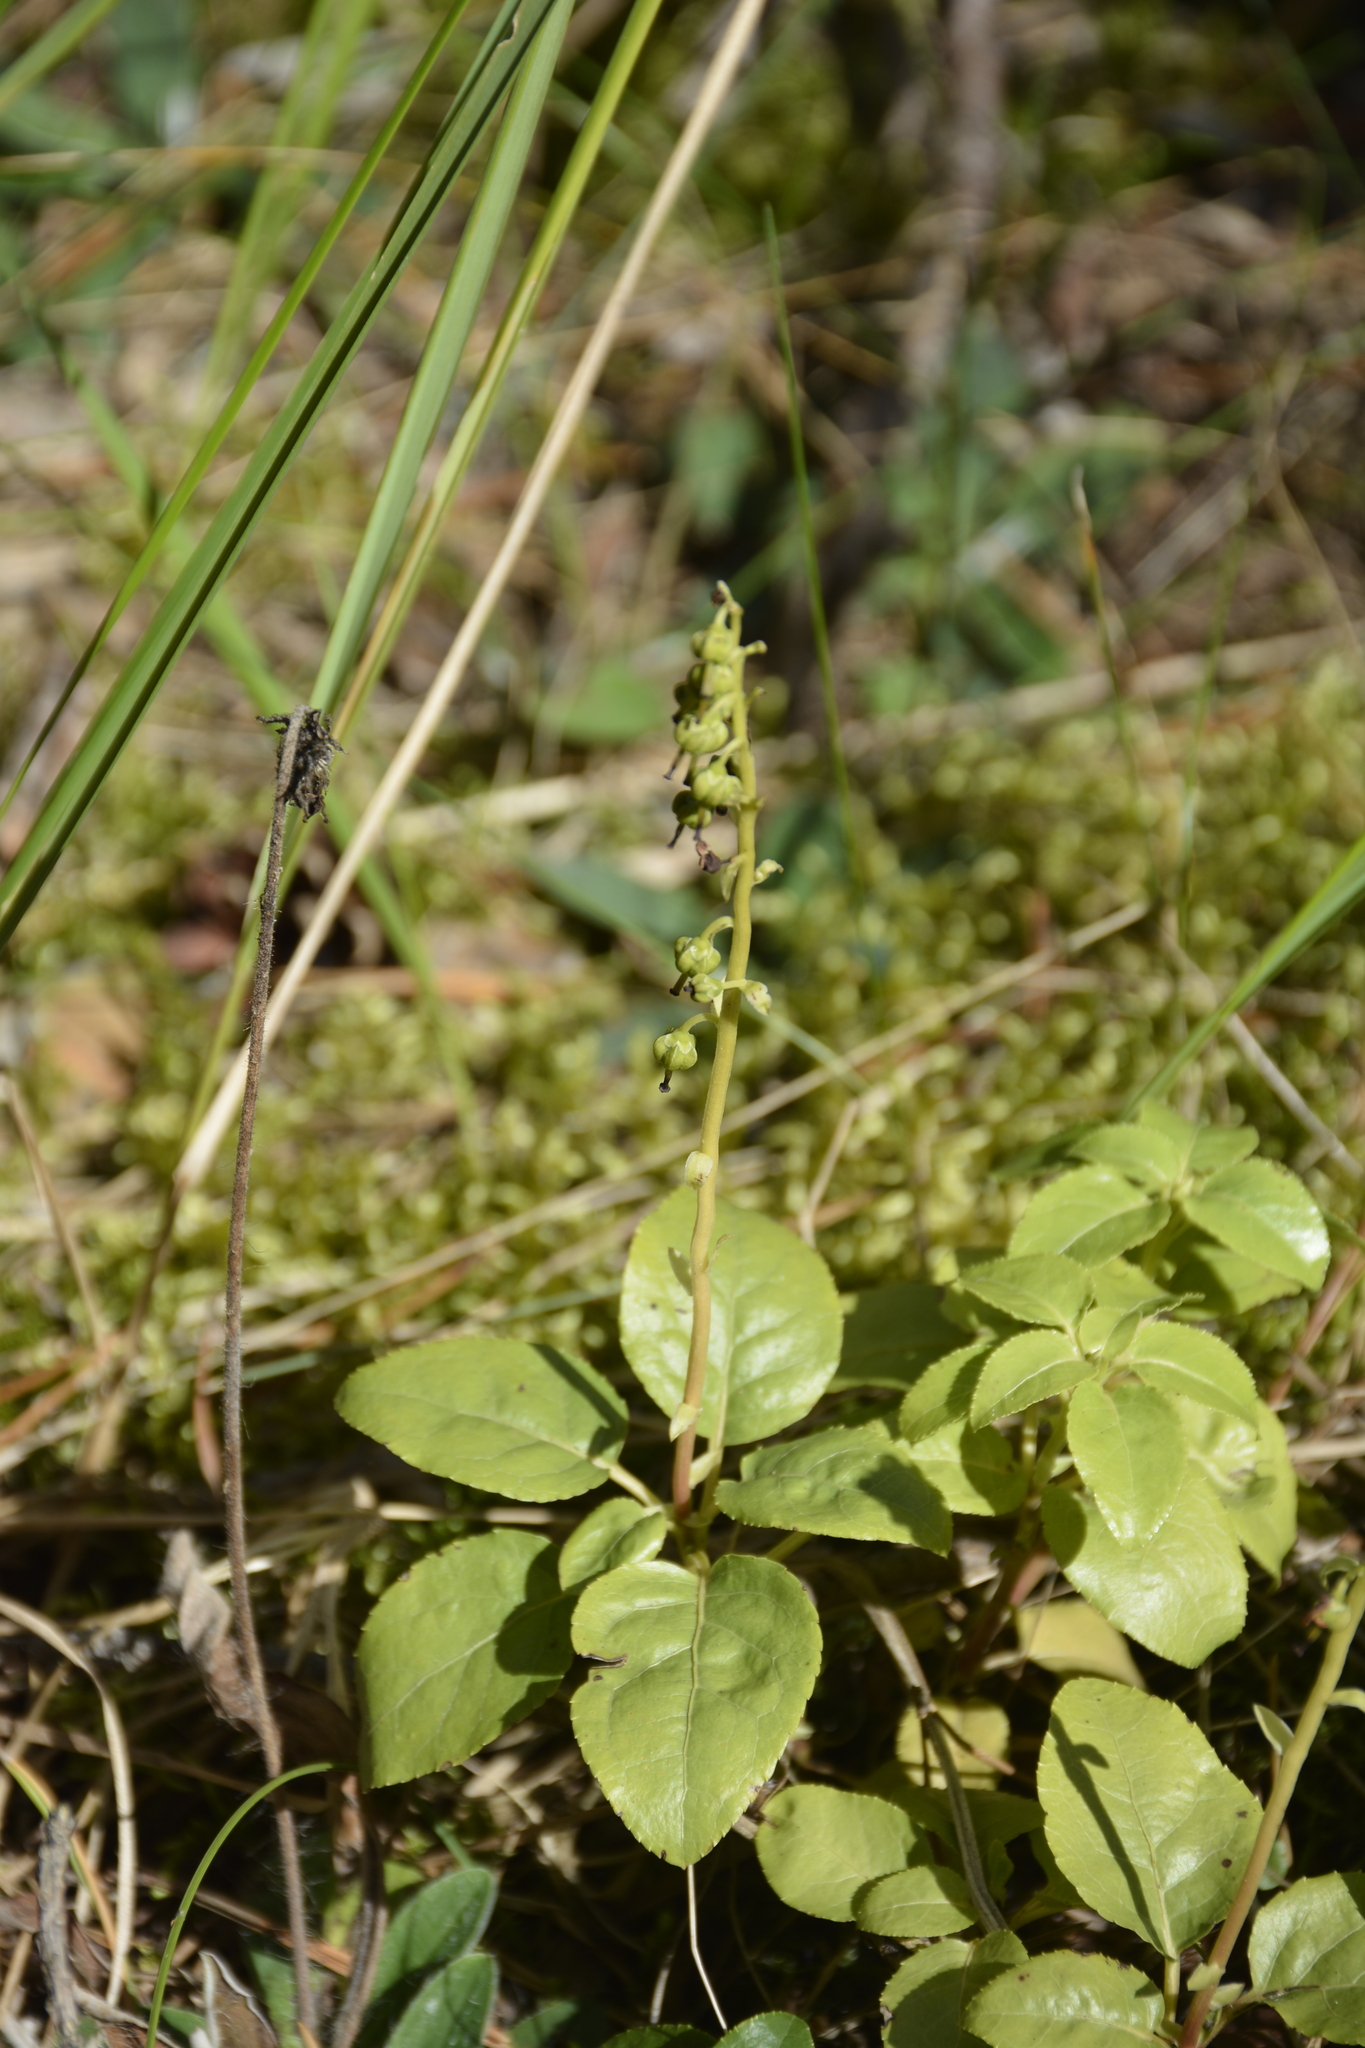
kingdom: Plantae
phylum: Tracheophyta
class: Magnoliopsida
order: Ericales
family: Ericaceae
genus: Orthilia
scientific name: Orthilia secunda
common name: One-sided orthilia
